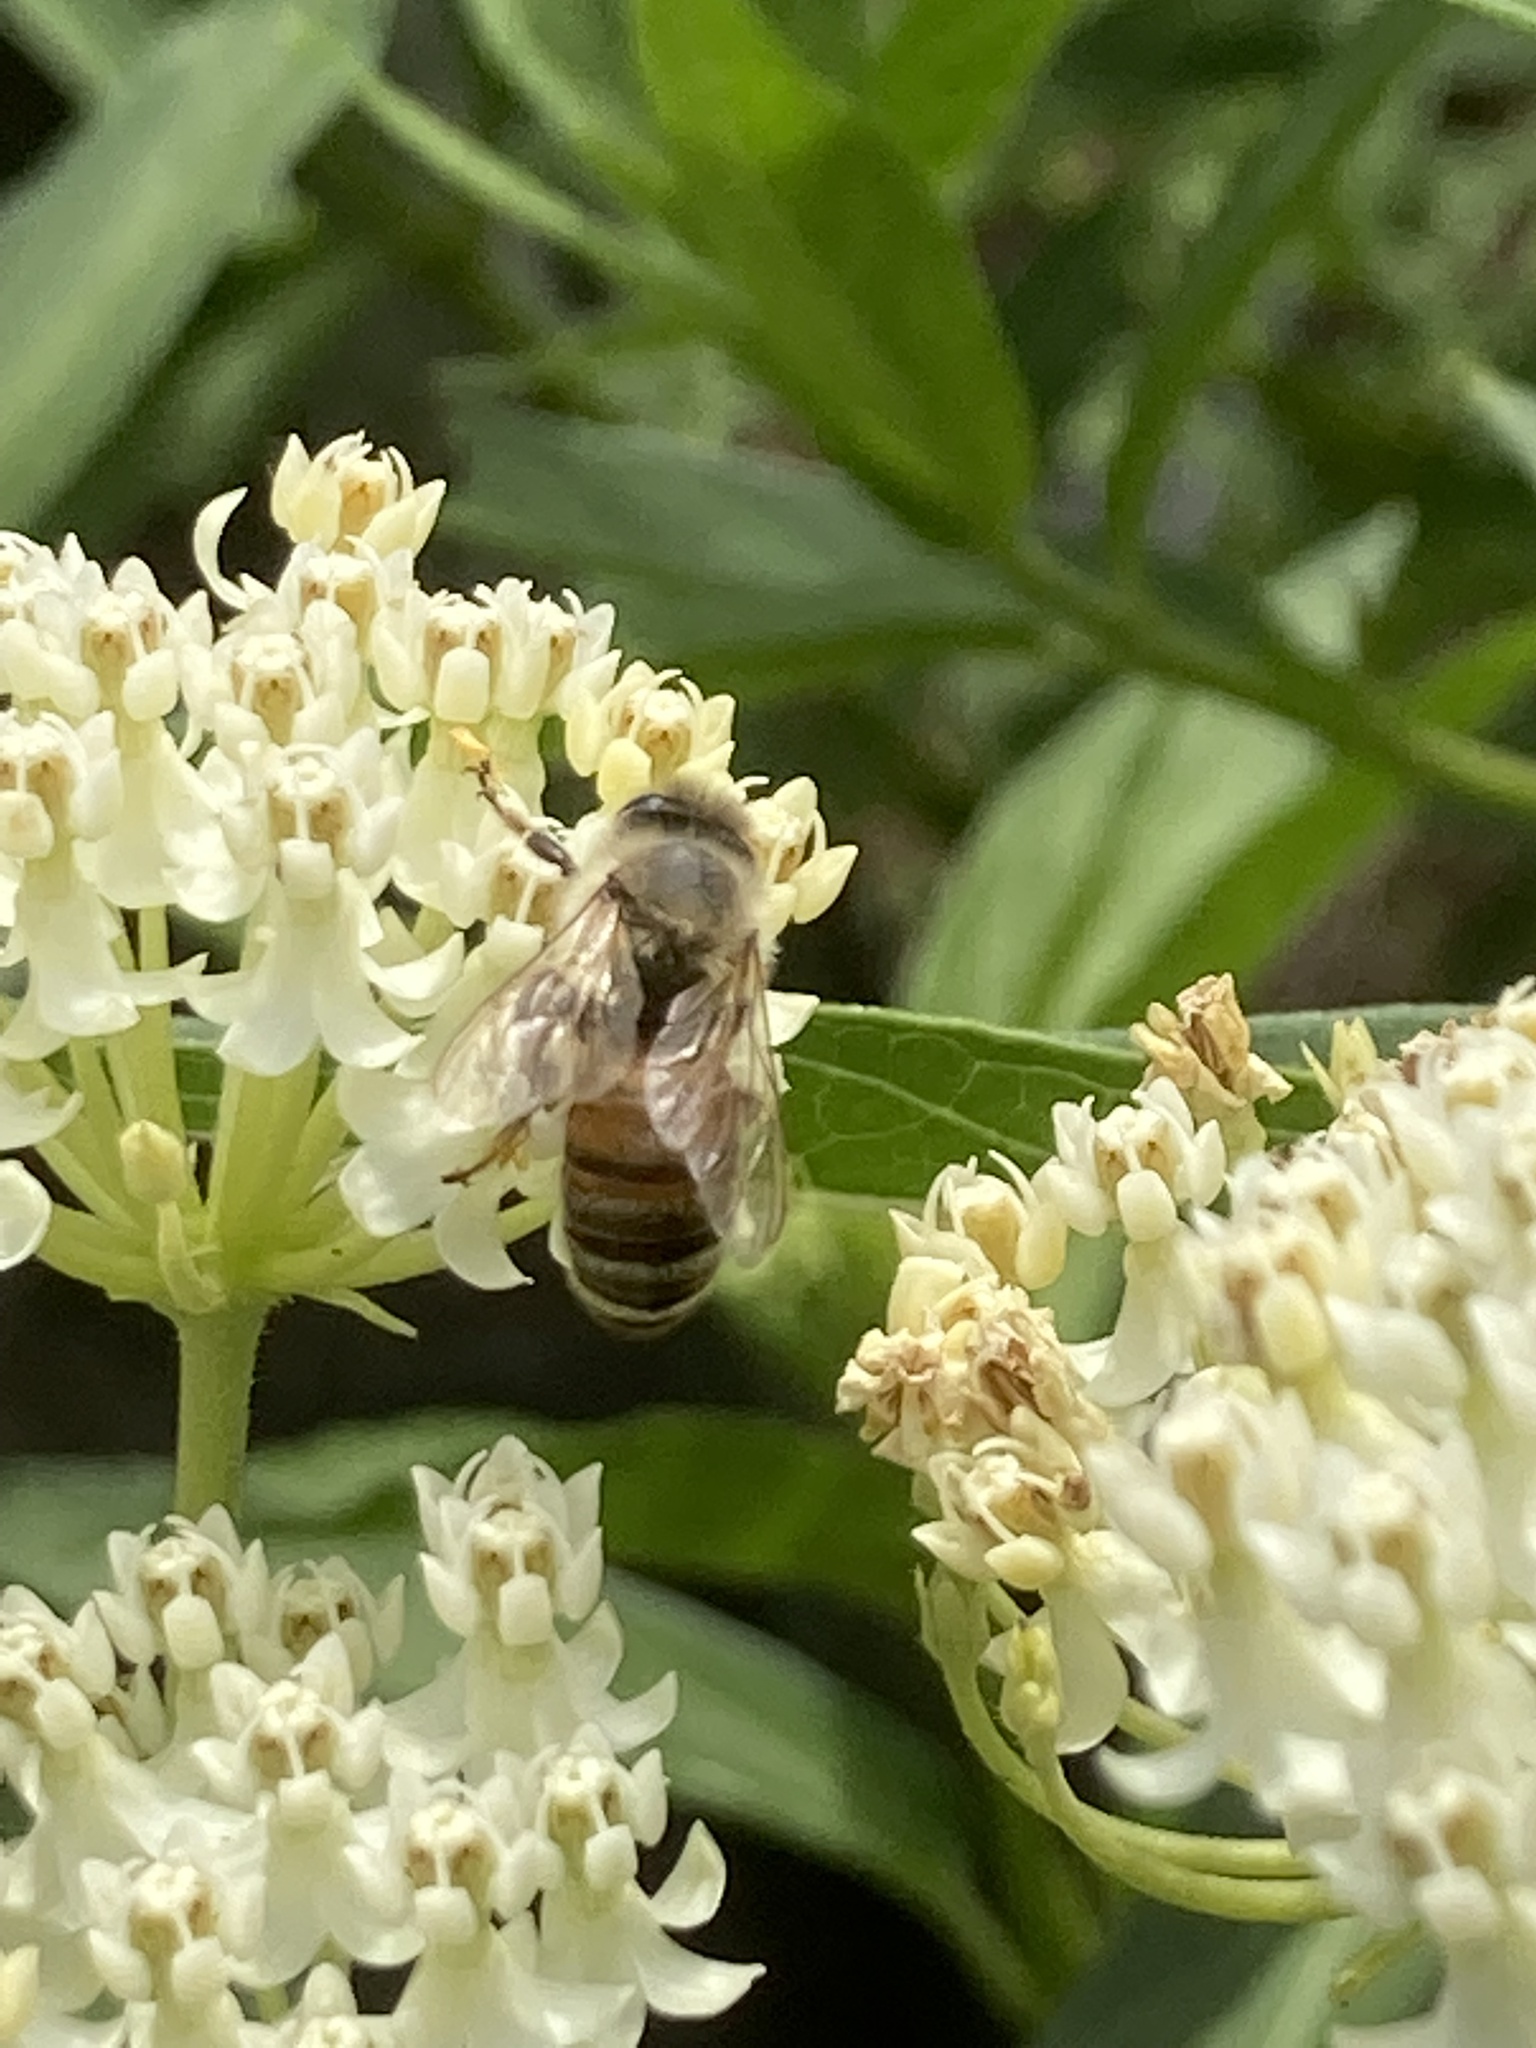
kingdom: Animalia
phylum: Arthropoda
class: Insecta
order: Hymenoptera
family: Apidae
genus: Apis
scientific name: Apis mellifera
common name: Honey bee
